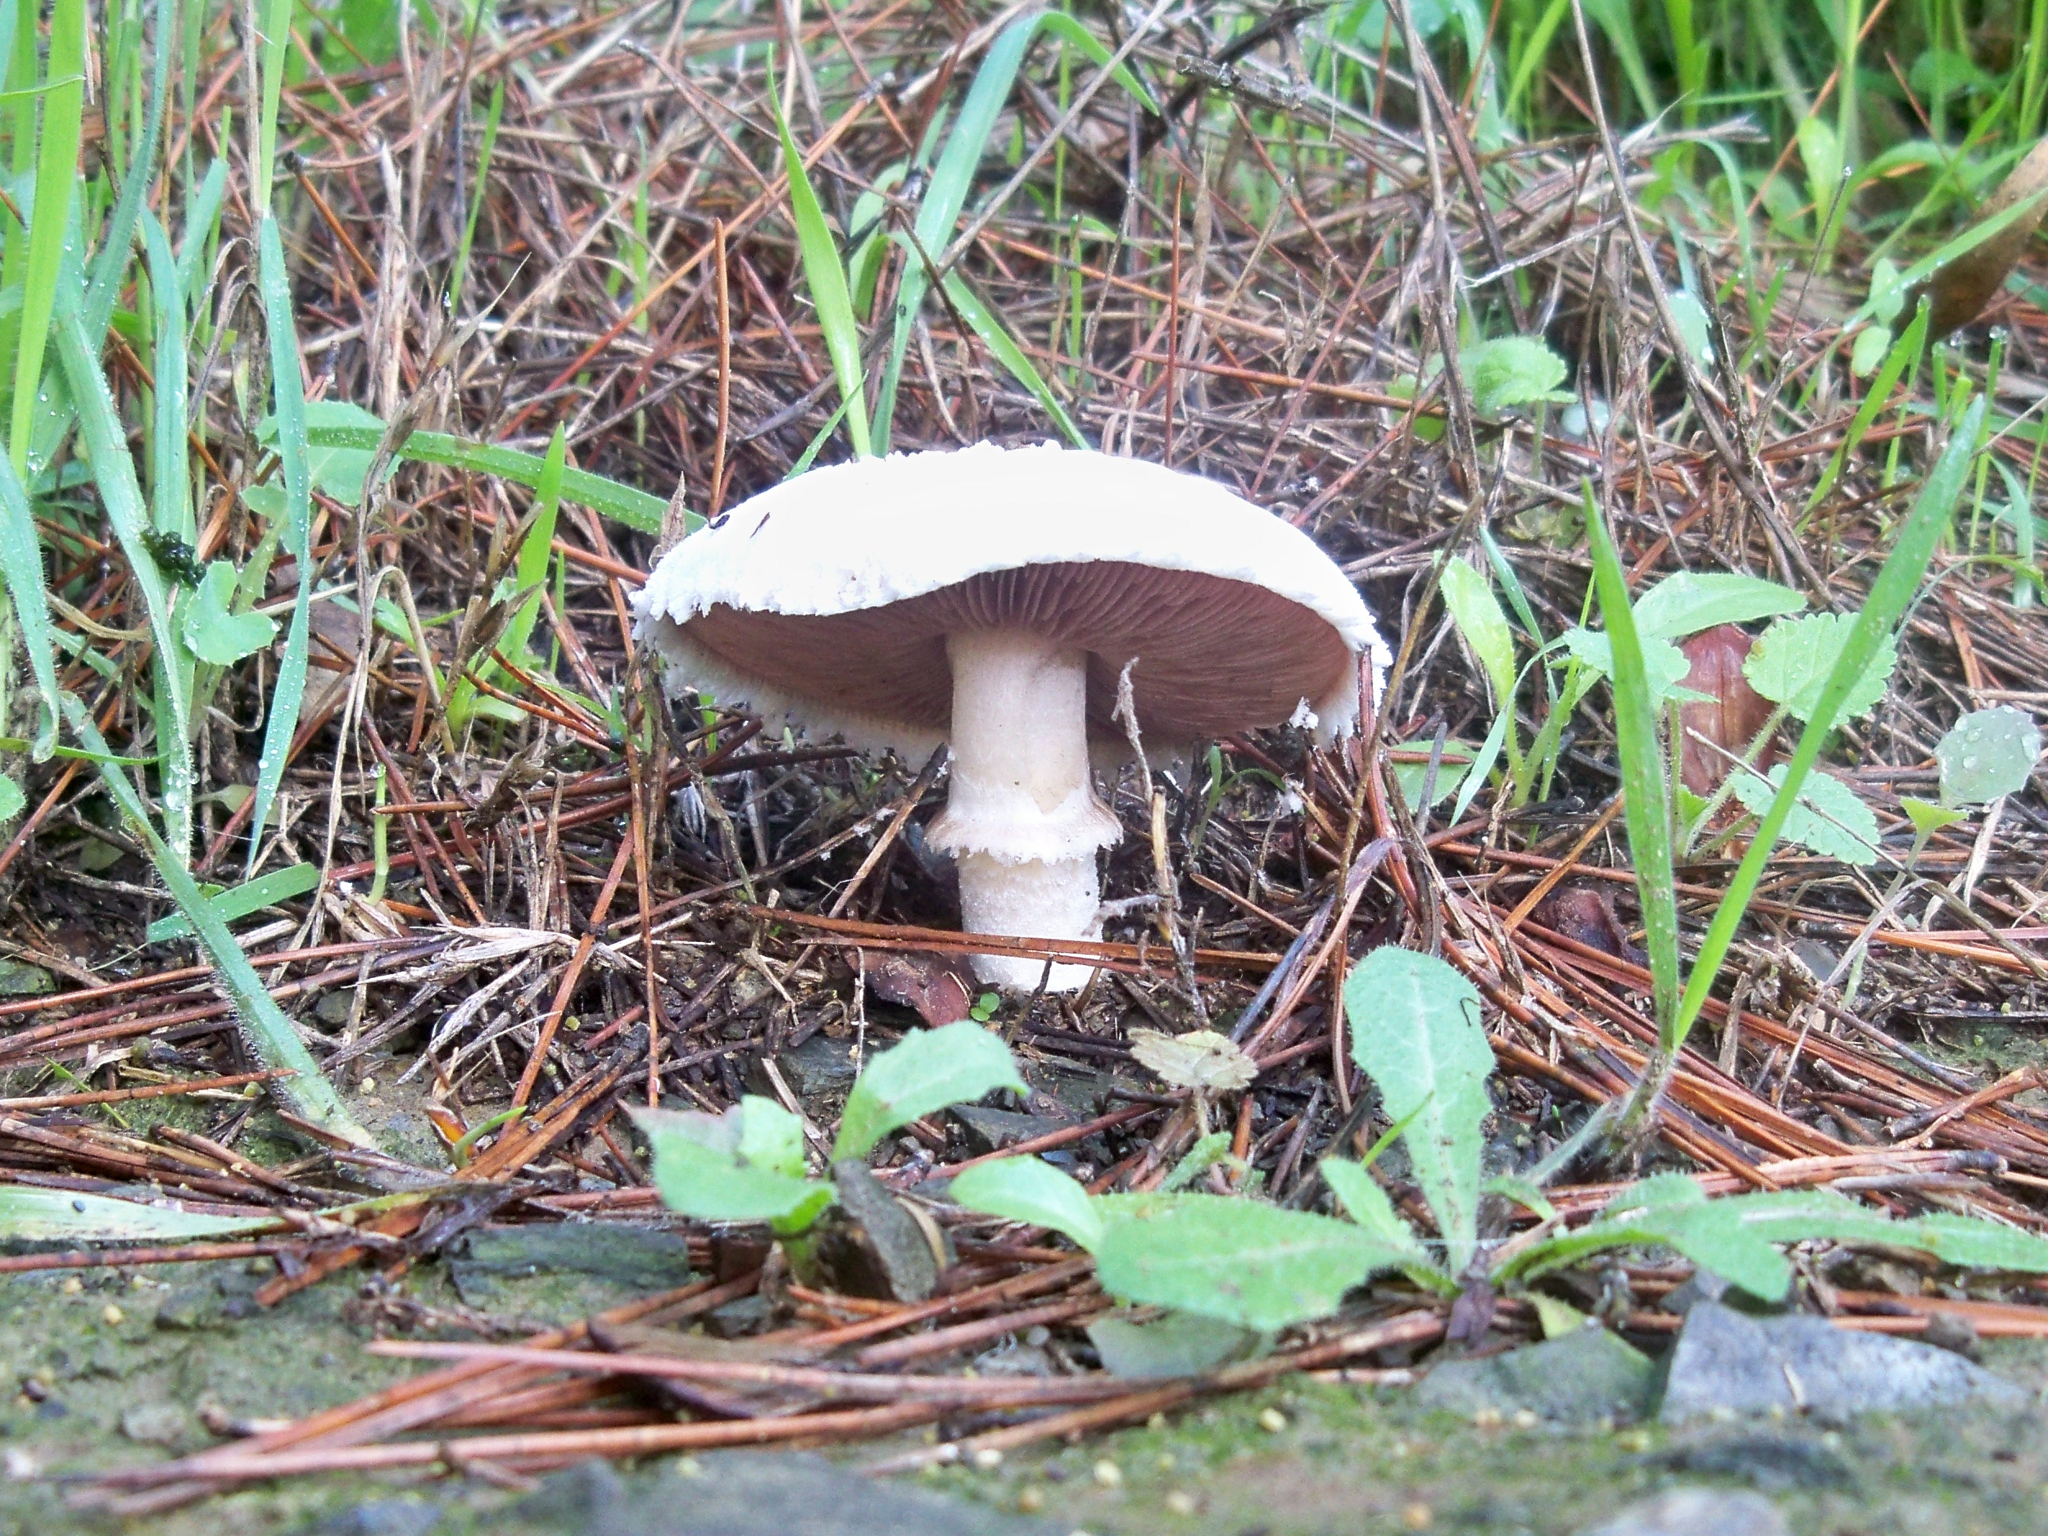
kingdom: Fungi
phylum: Basidiomycota
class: Agaricomycetes
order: Agaricales
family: Agaricaceae
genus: Agaricus
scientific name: Agaricus campestris
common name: Field mushroom
